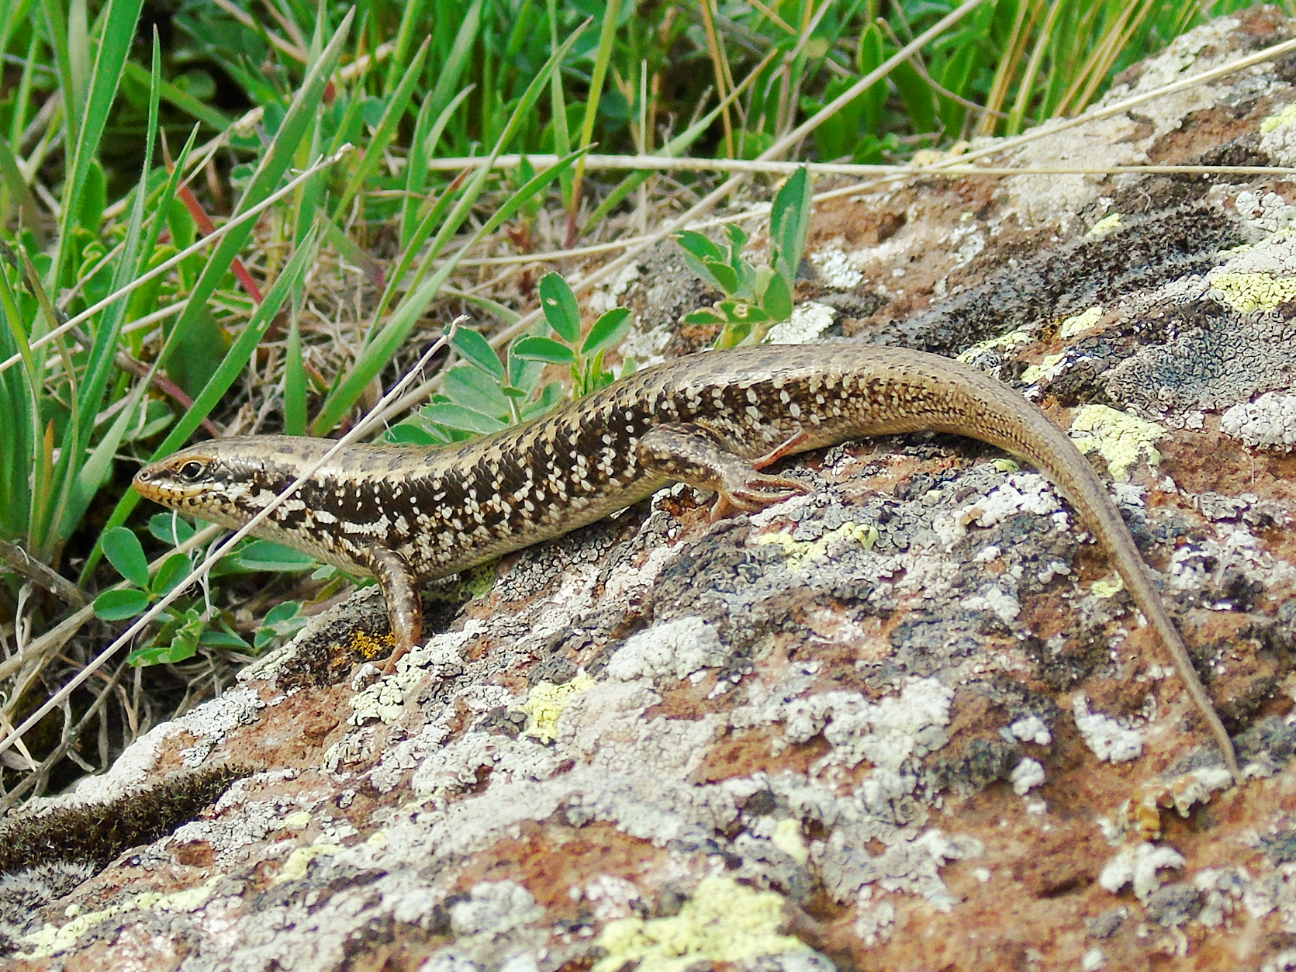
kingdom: Animalia
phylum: Chordata
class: Squamata
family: Scincidae
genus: Heremites
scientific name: Heremites auratus
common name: Golden grass mabuya
